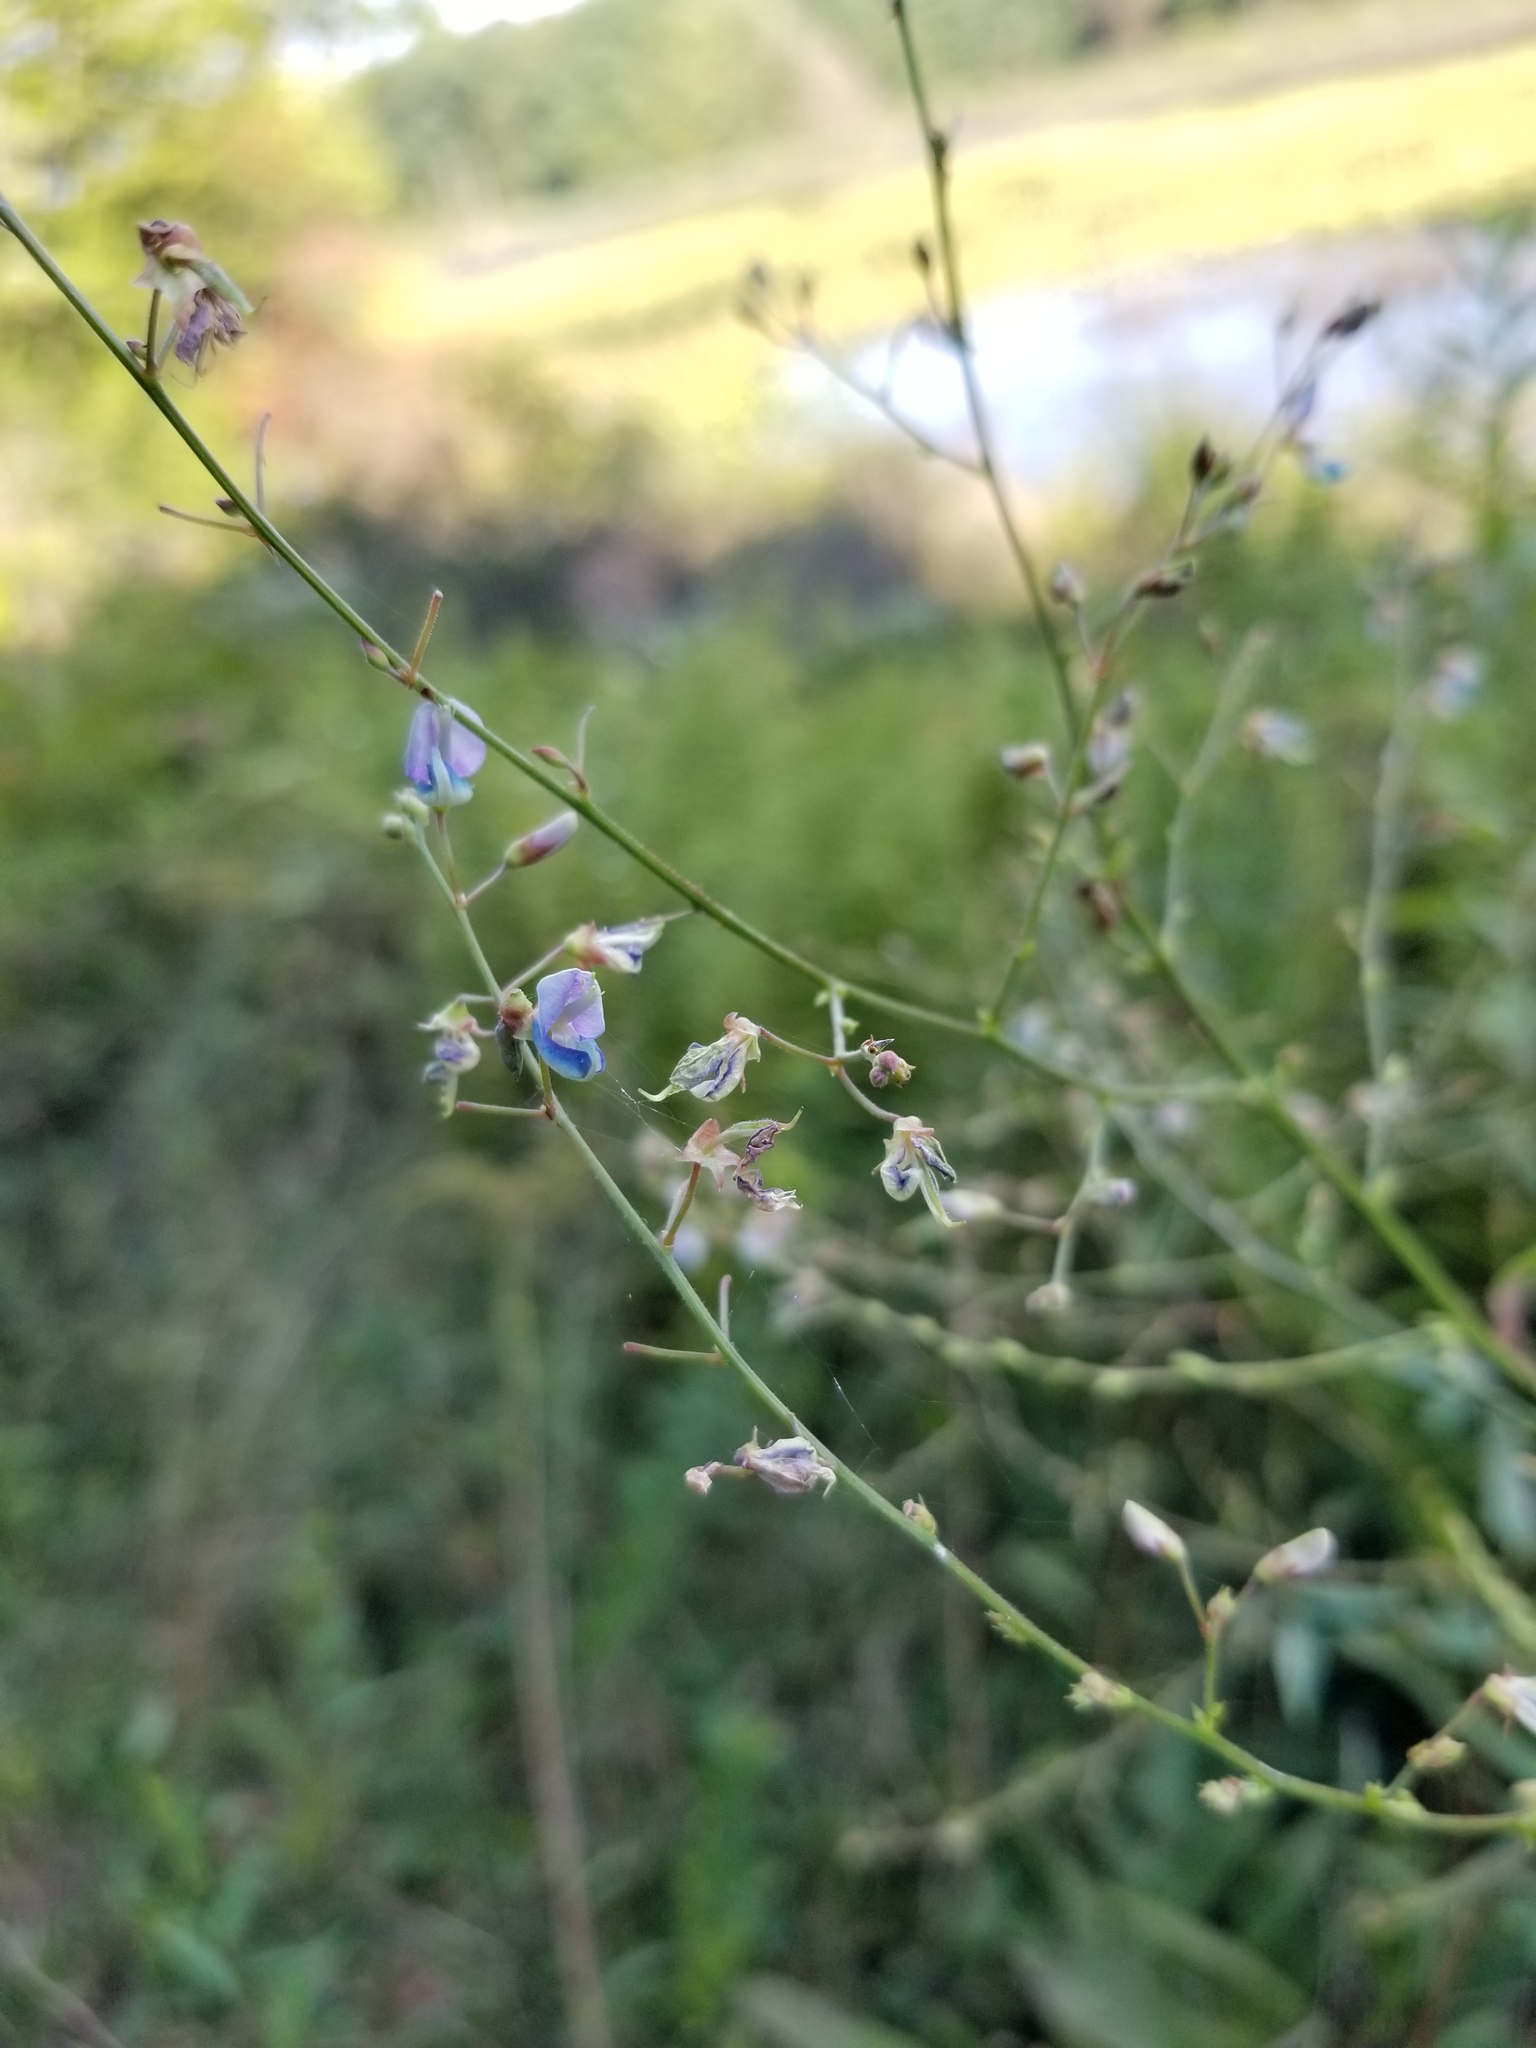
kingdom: Plantae
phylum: Tracheophyta
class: Magnoliopsida
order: Fabales
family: Fabaceae
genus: Desmodium
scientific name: Desmodium paniculatum
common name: Panicled tick-clover
